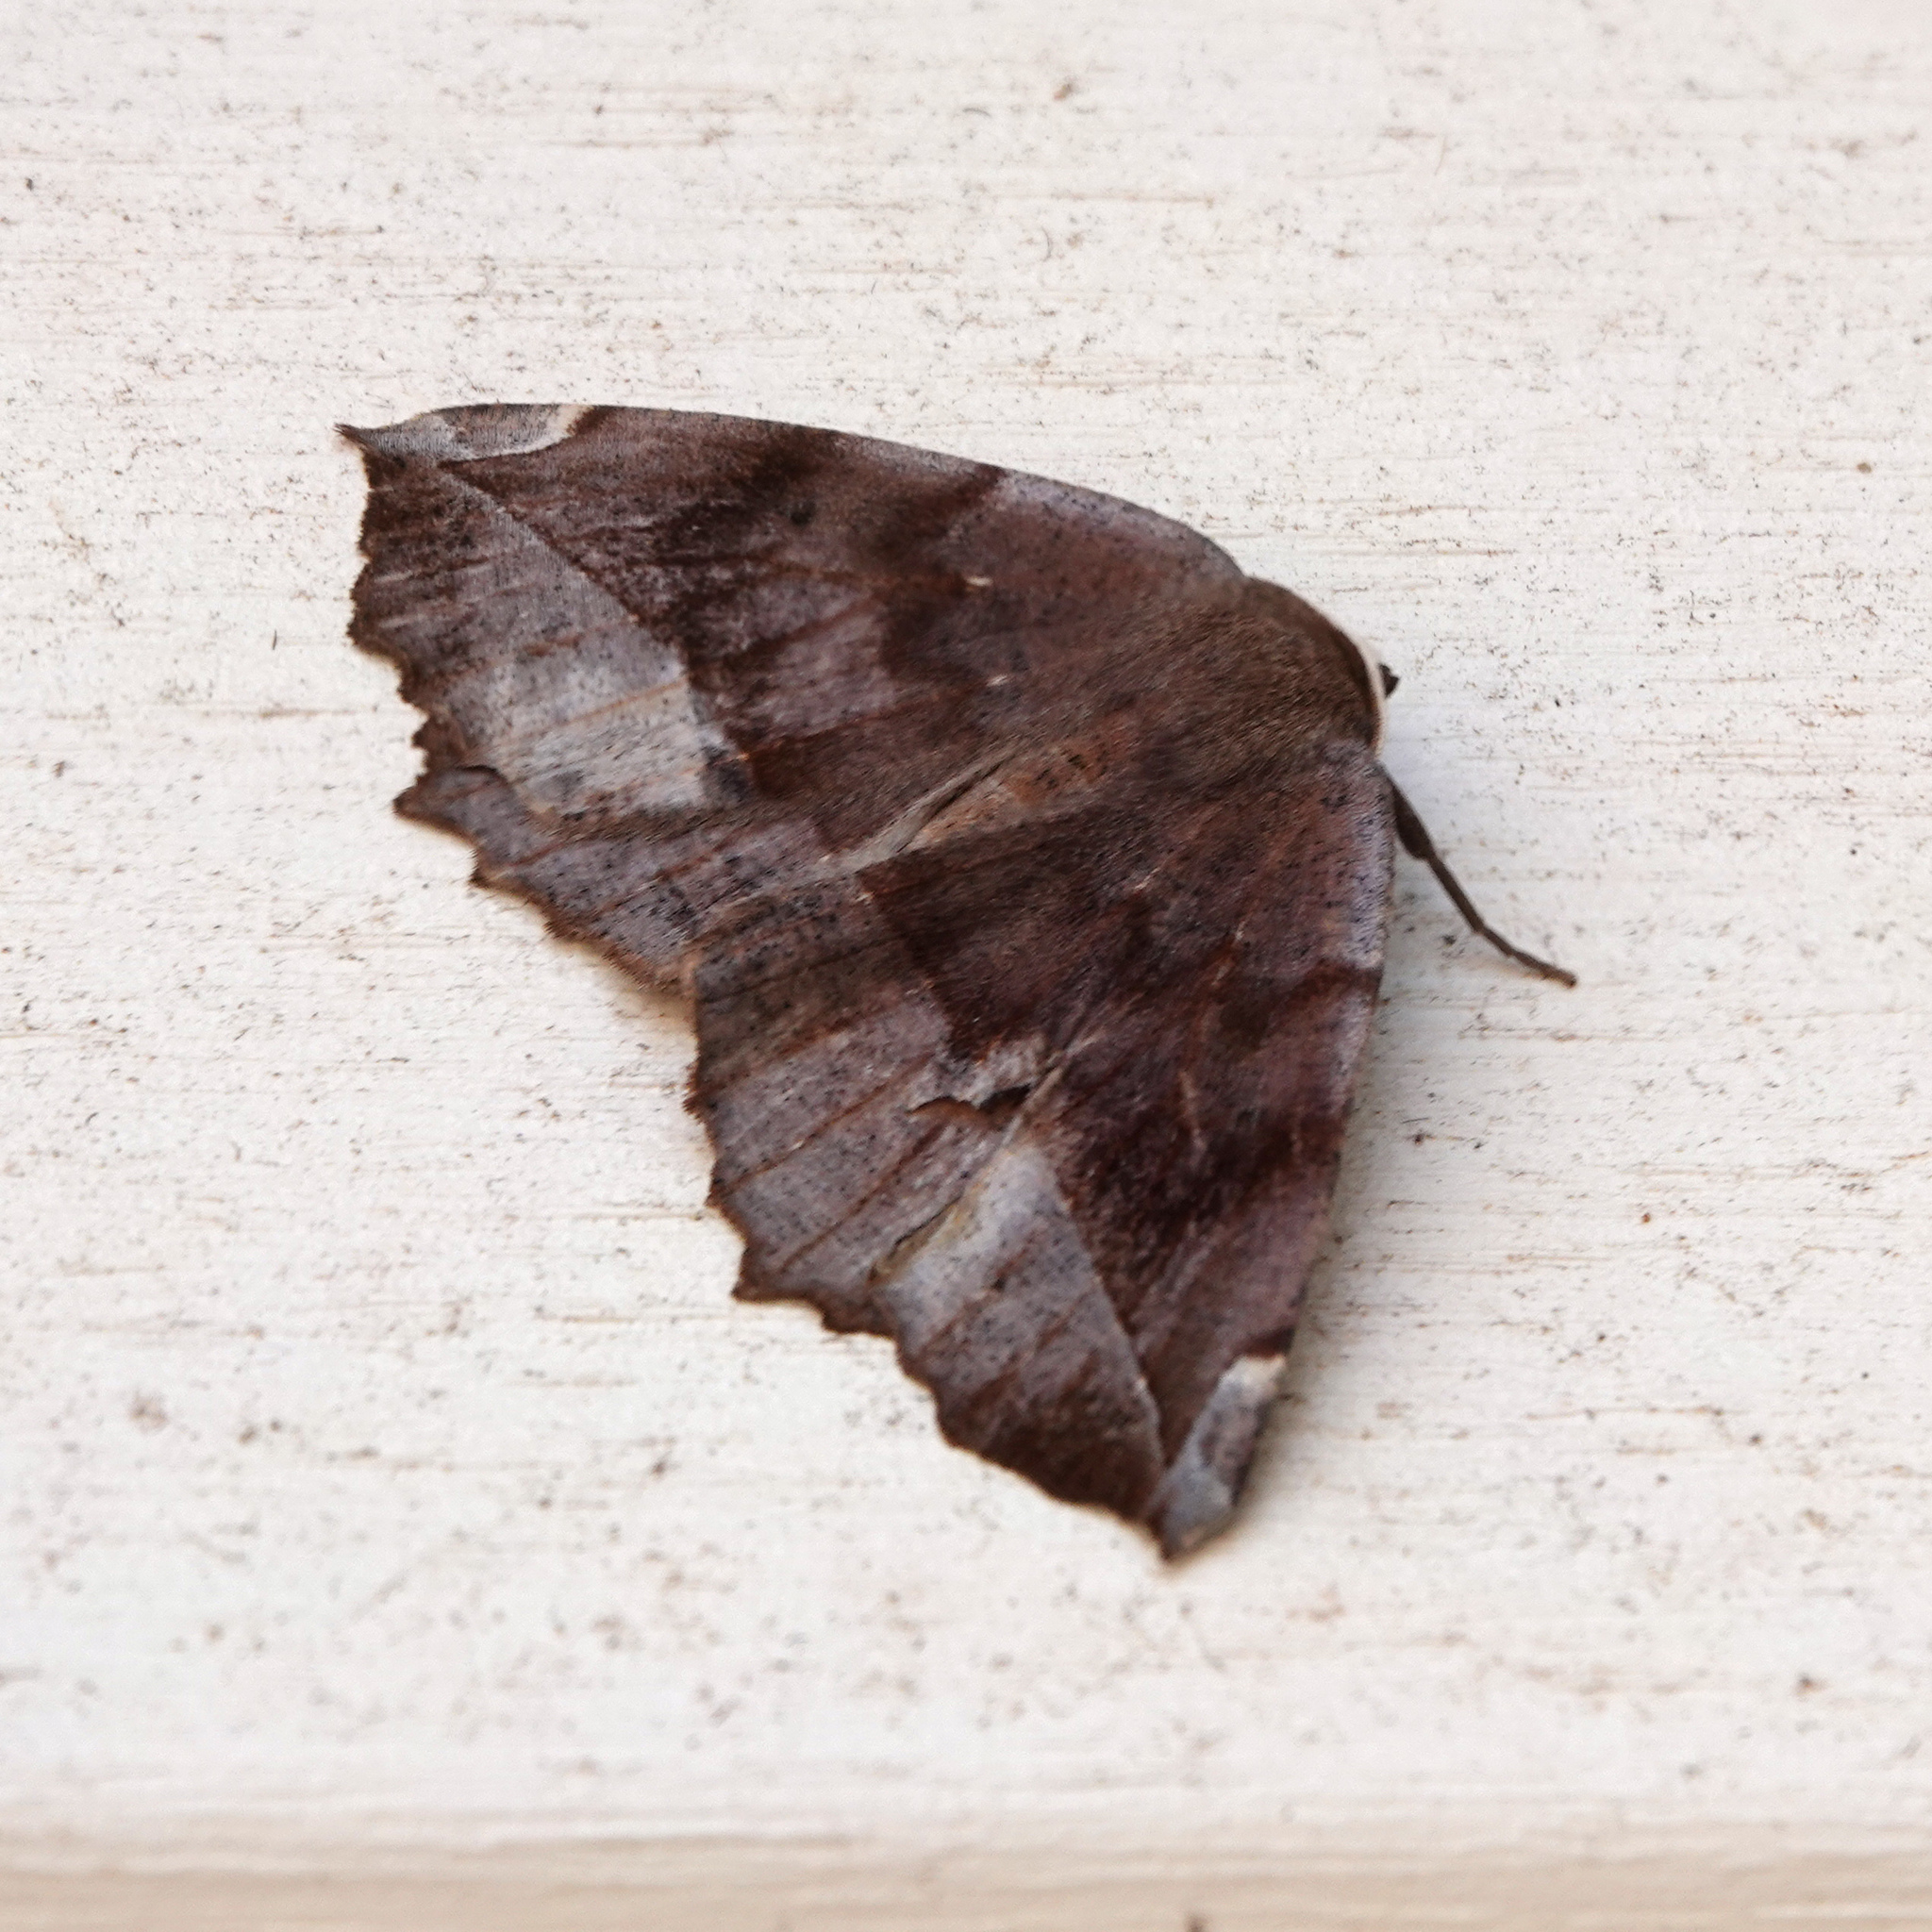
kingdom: Animalia
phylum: Arthropoda
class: Insecta
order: Lepidoptera
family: Geometridae
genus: Eutrapela
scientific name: Eutrapela clemataria
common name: Curved-toothed geometer
